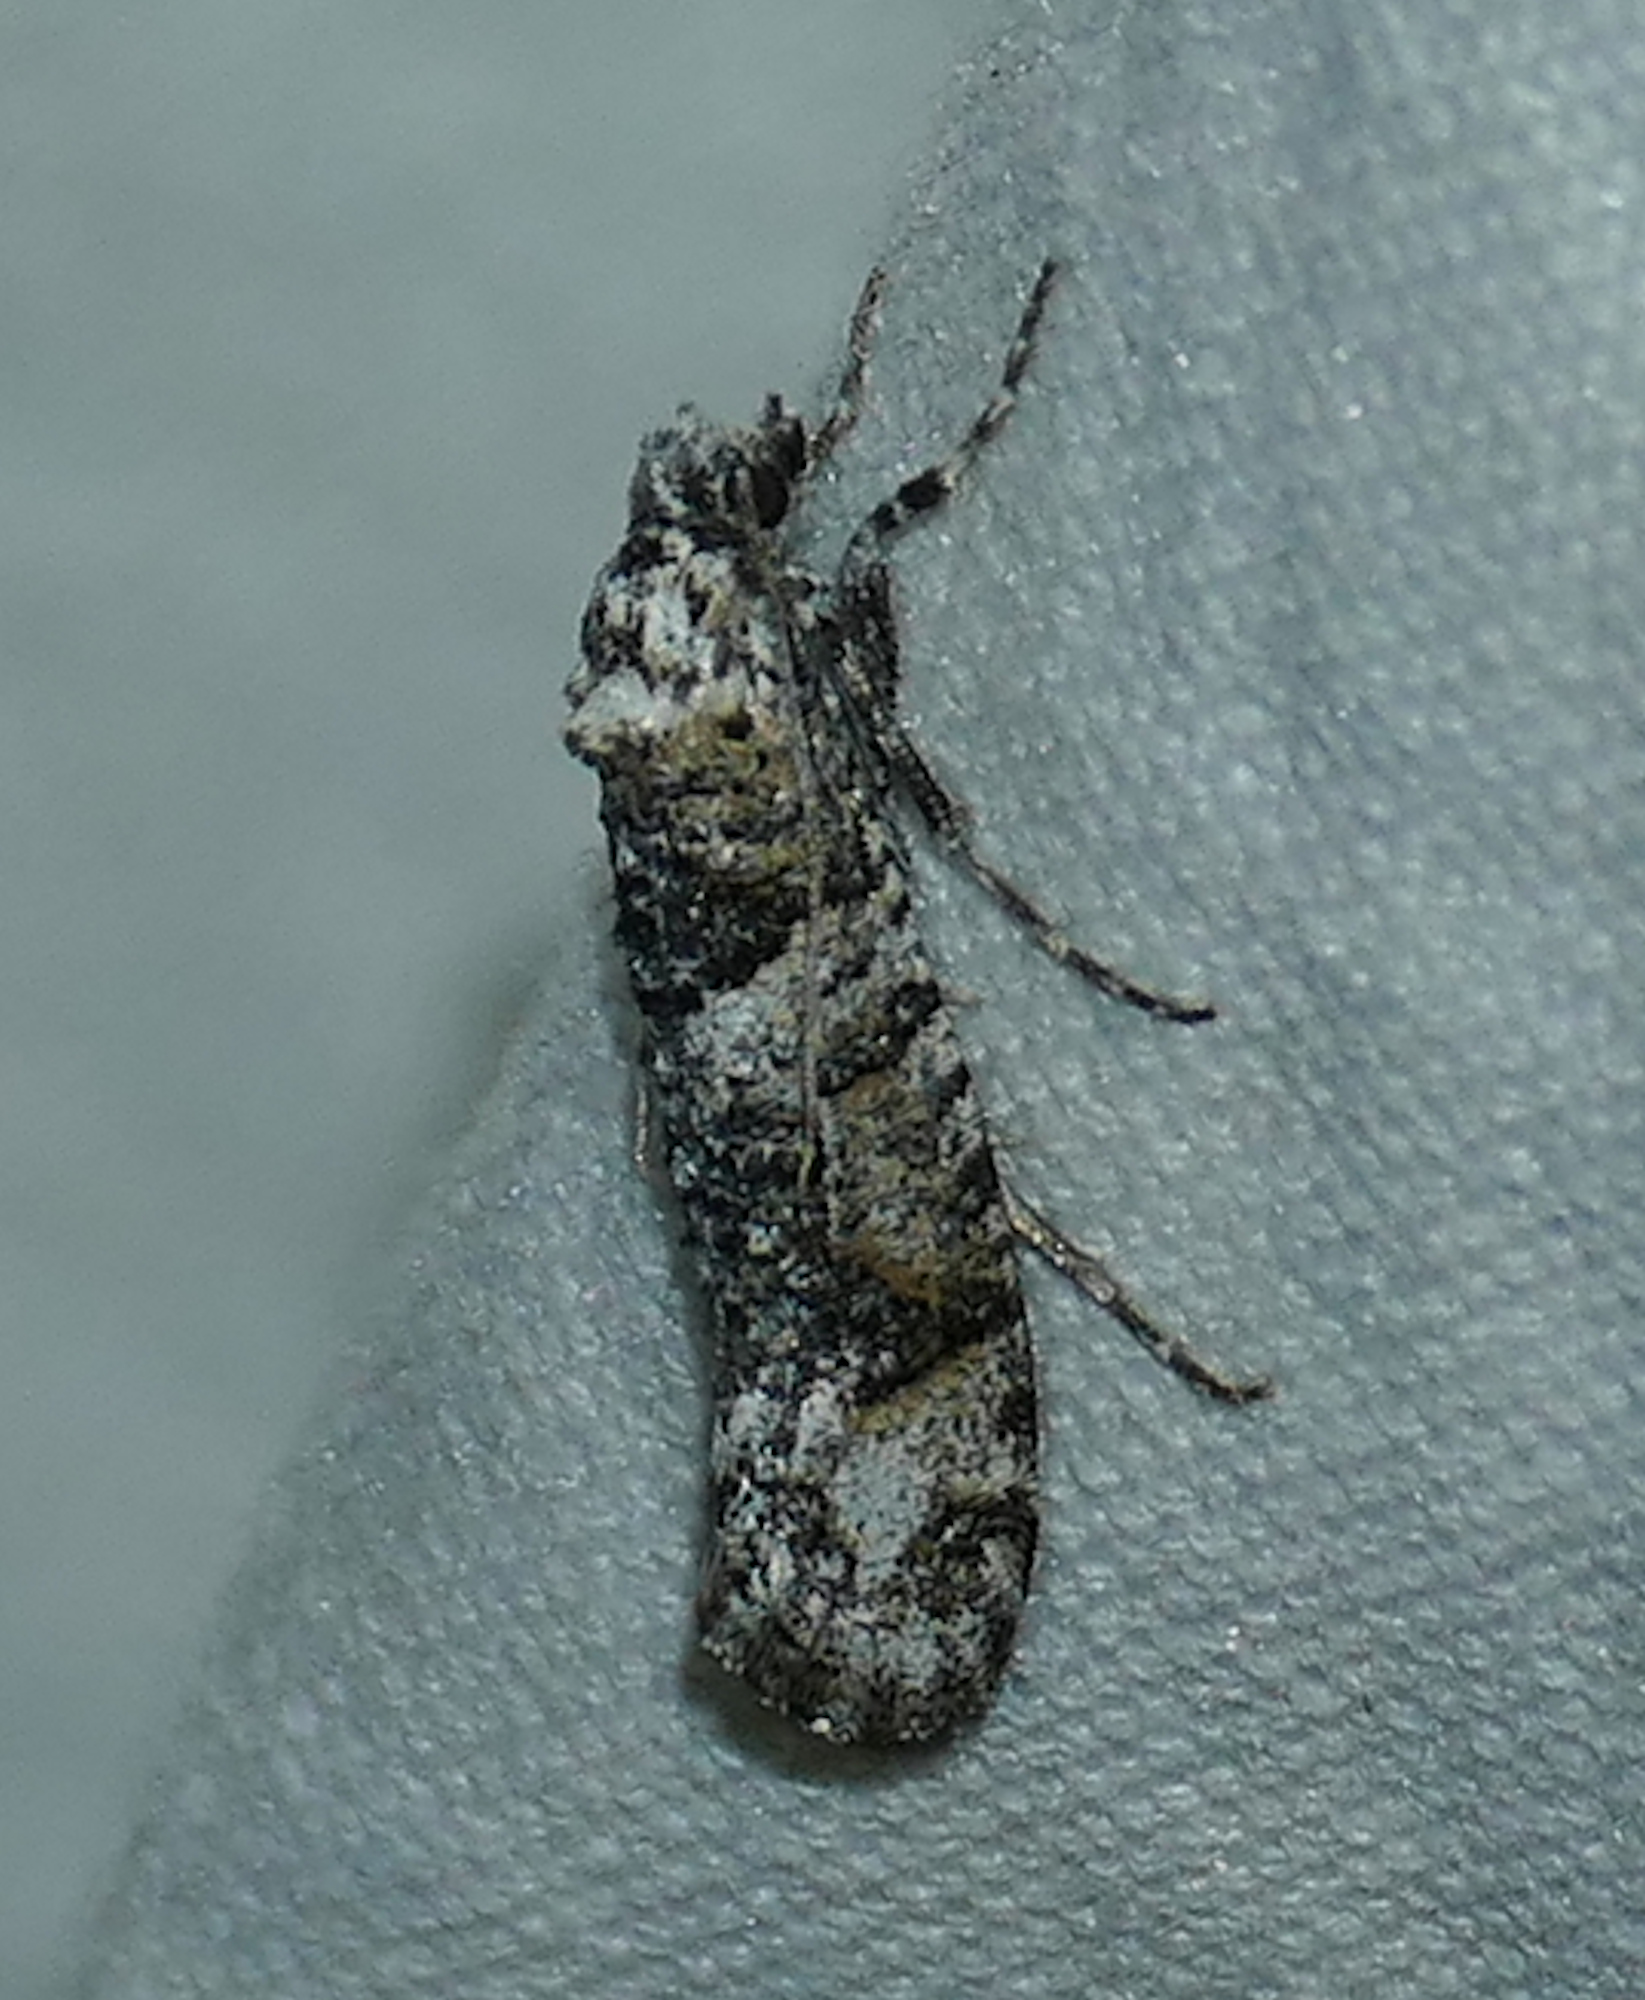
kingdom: Animalia
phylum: Arthropoda
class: Insecta
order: Lepidoptera
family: Tineidae
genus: Dyotopasta
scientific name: Dyotopasta yumaella
